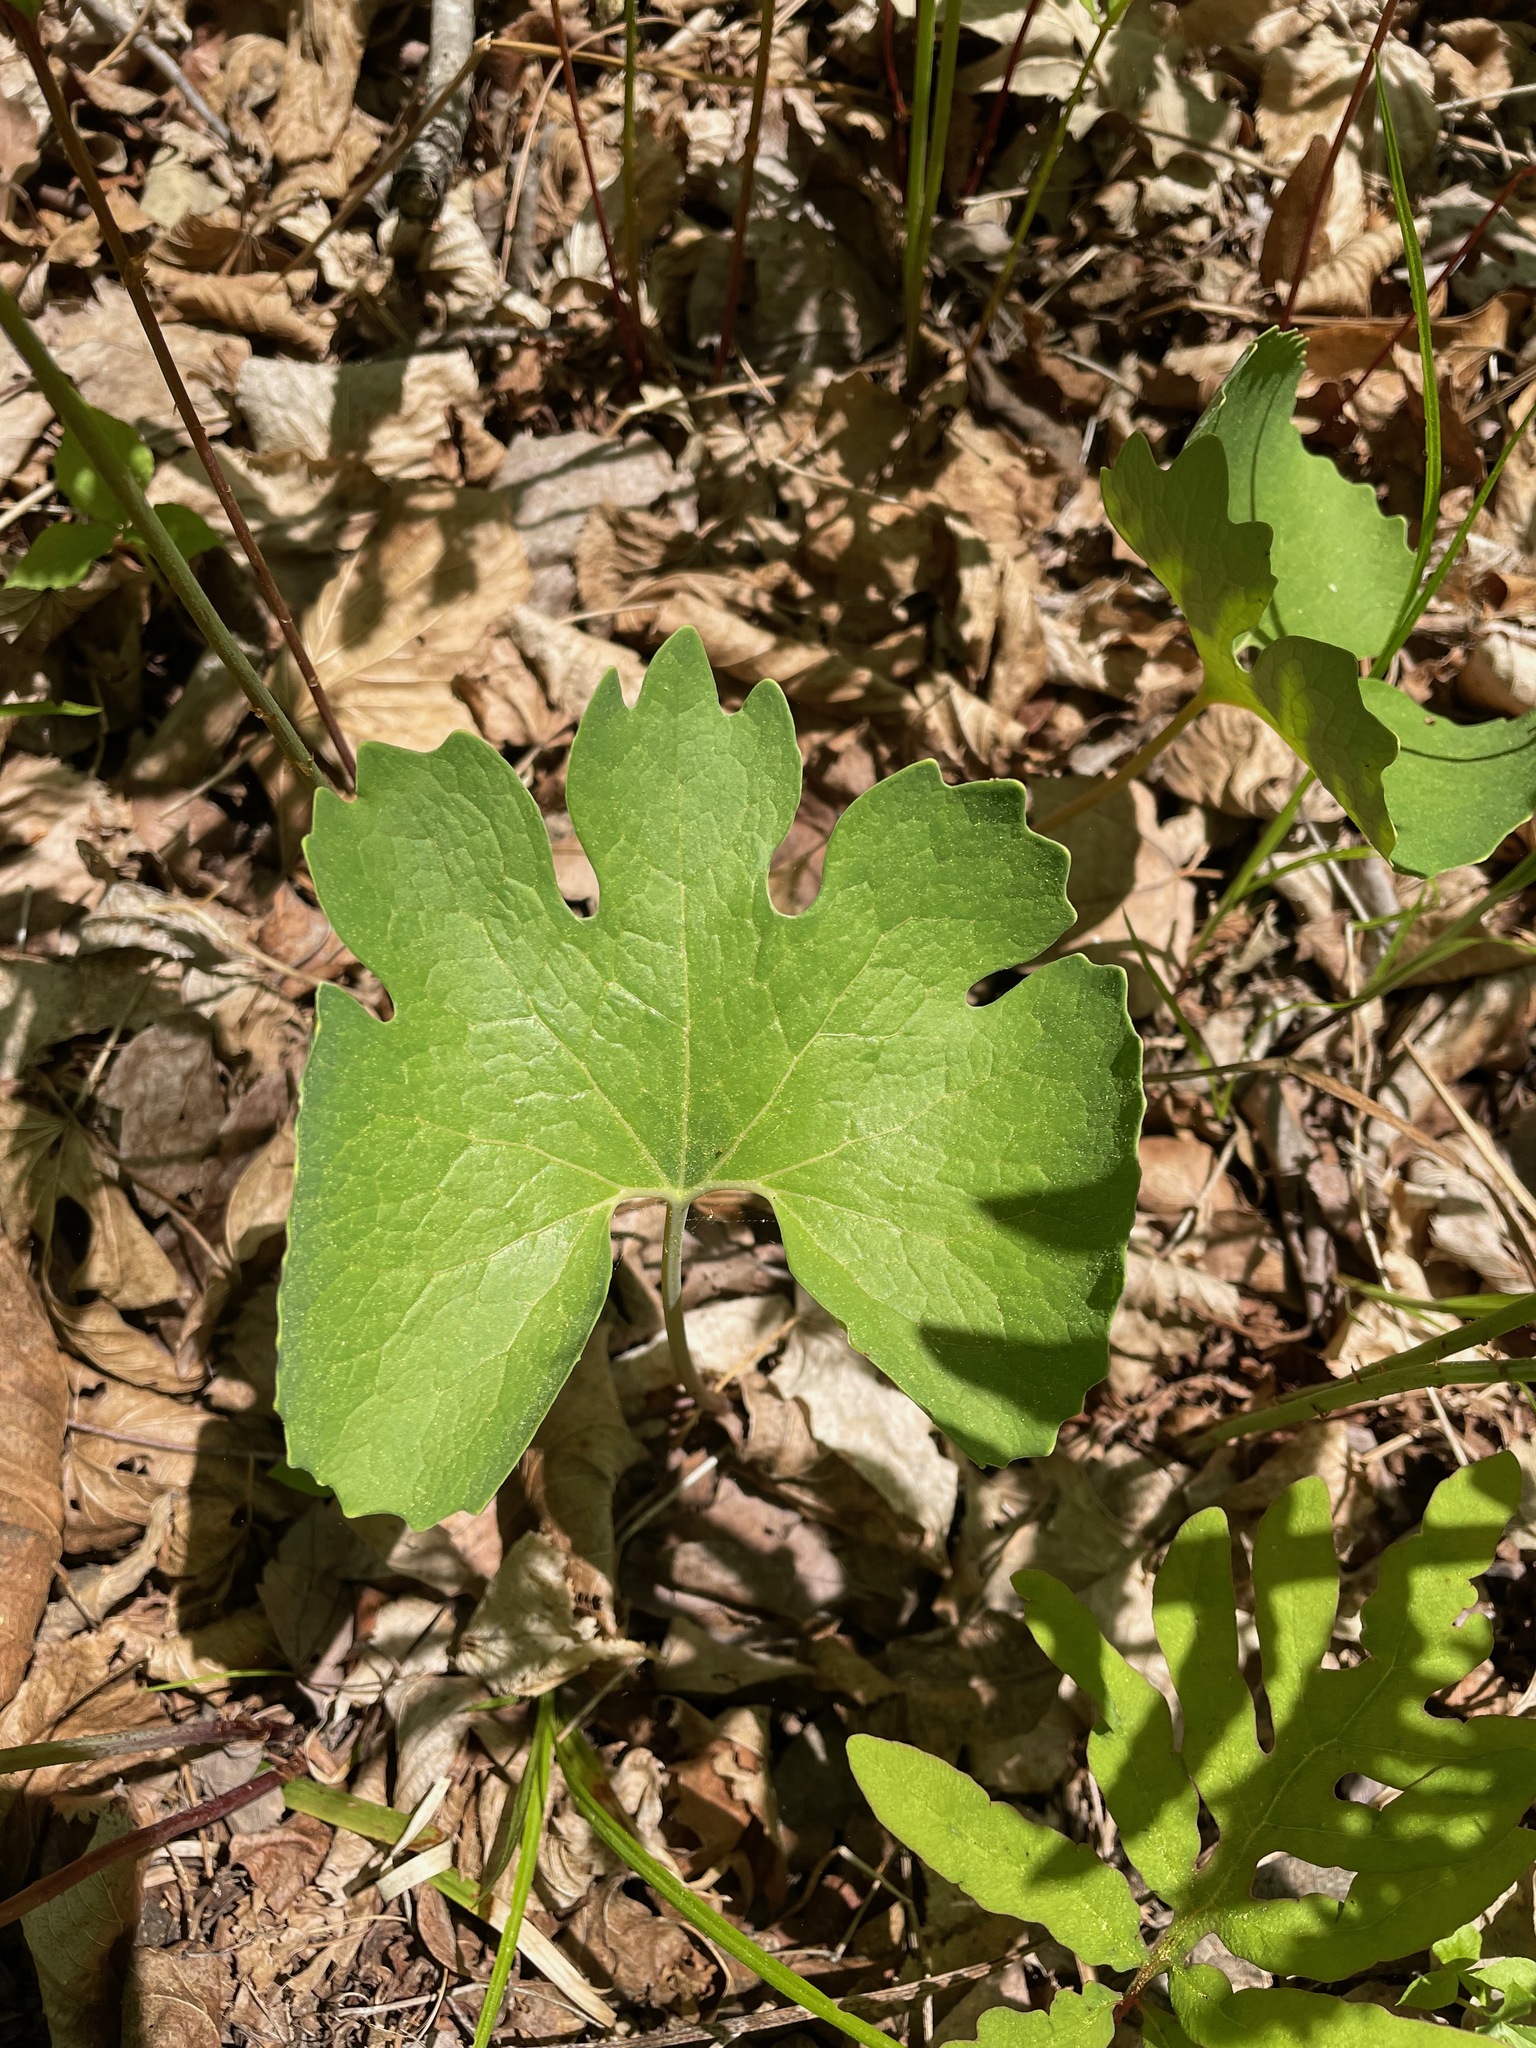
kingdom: Plantae
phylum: Tracheophyta
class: Magnoliopsida
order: Ranunculales
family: Papaveraceae
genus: Sanguinaria
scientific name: Sanguinaria canadensis
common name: Bloodroot
